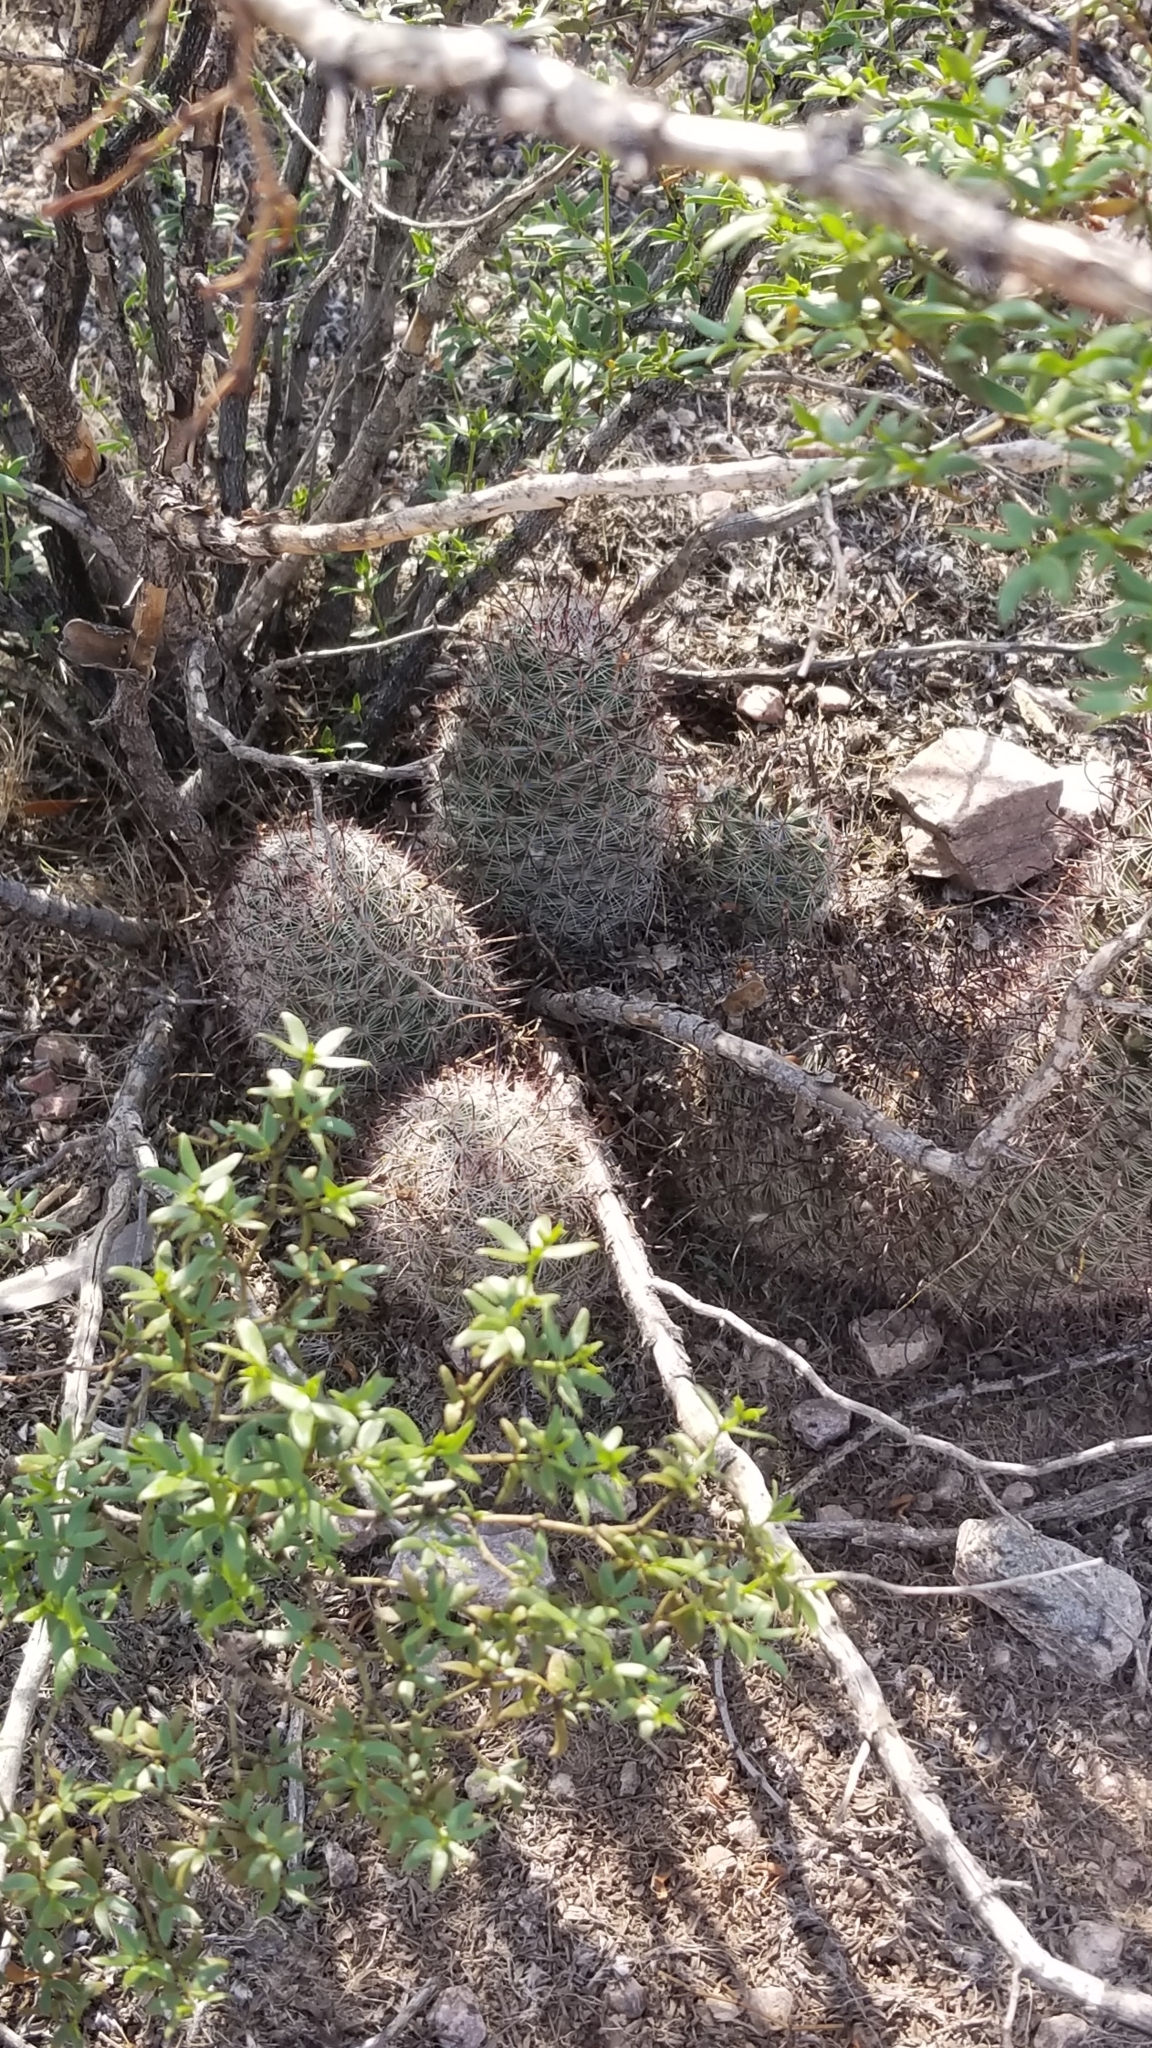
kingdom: Plantae
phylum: Tracheophyta
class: Magnoliopsida
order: Caryophyllales
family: Cactaceae
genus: Cochemiea
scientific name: Cochemiea grahamii
